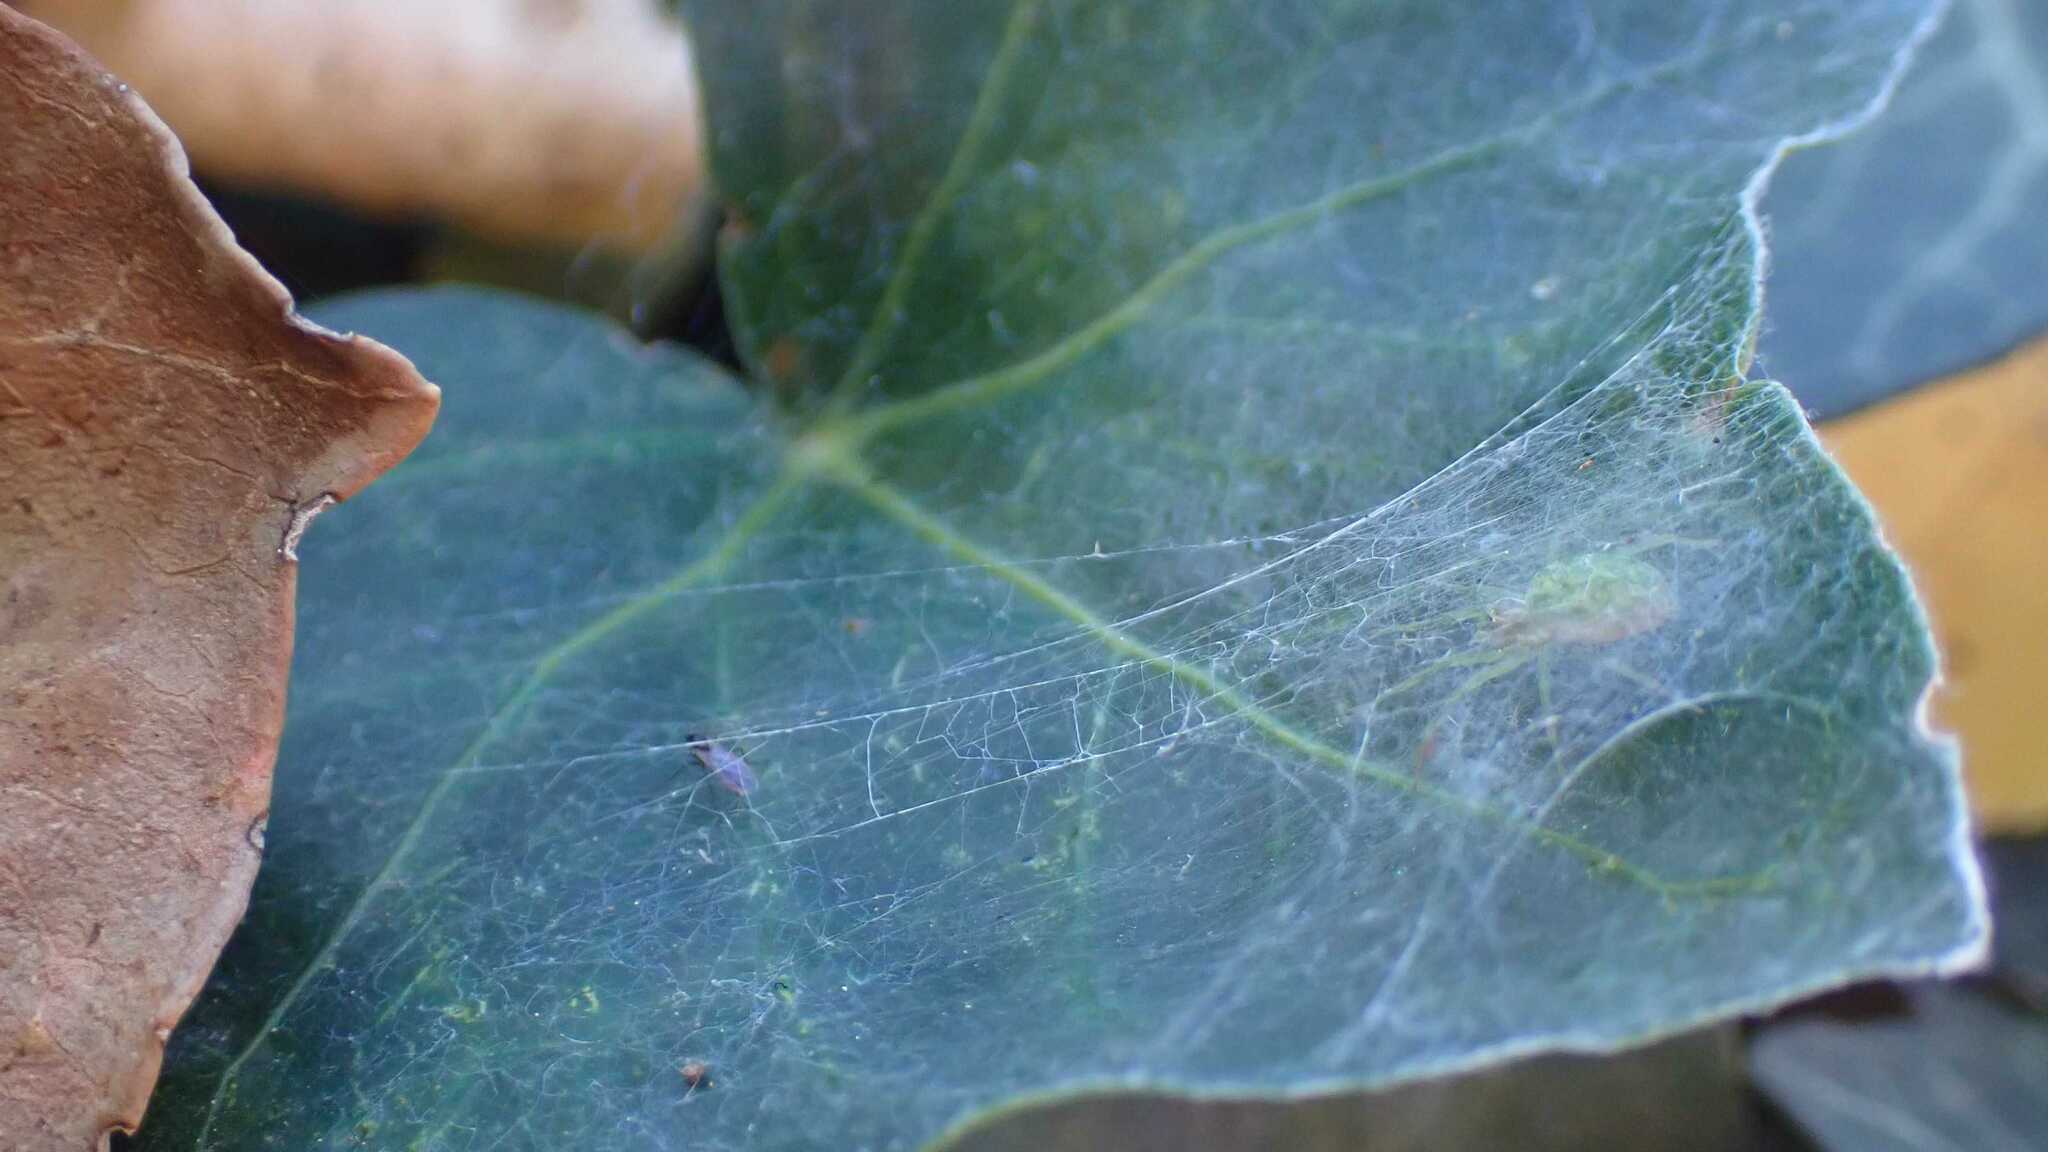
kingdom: Animalia
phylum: Arthropoda
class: Arachnida
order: Araneae
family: Dictynidae
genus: Nigma
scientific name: Nigma walckenaeri
